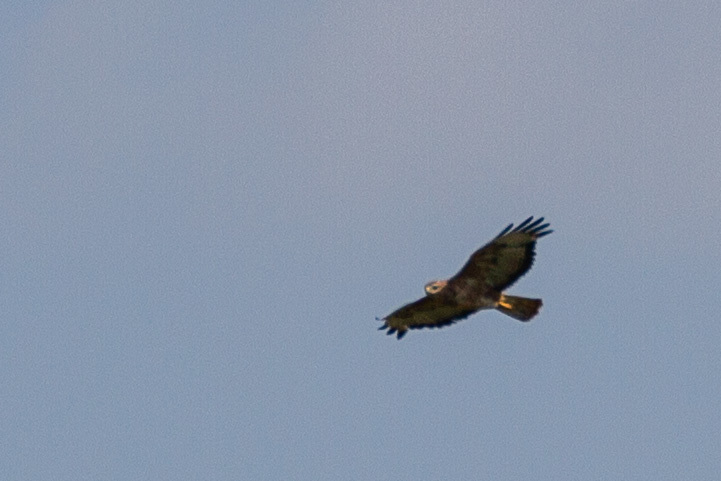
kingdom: Animalia
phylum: Chordata
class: Aves
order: Accipitriformes
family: Accipitridae
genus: Buteo
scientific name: Buteo buteo
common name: Common buzzard
